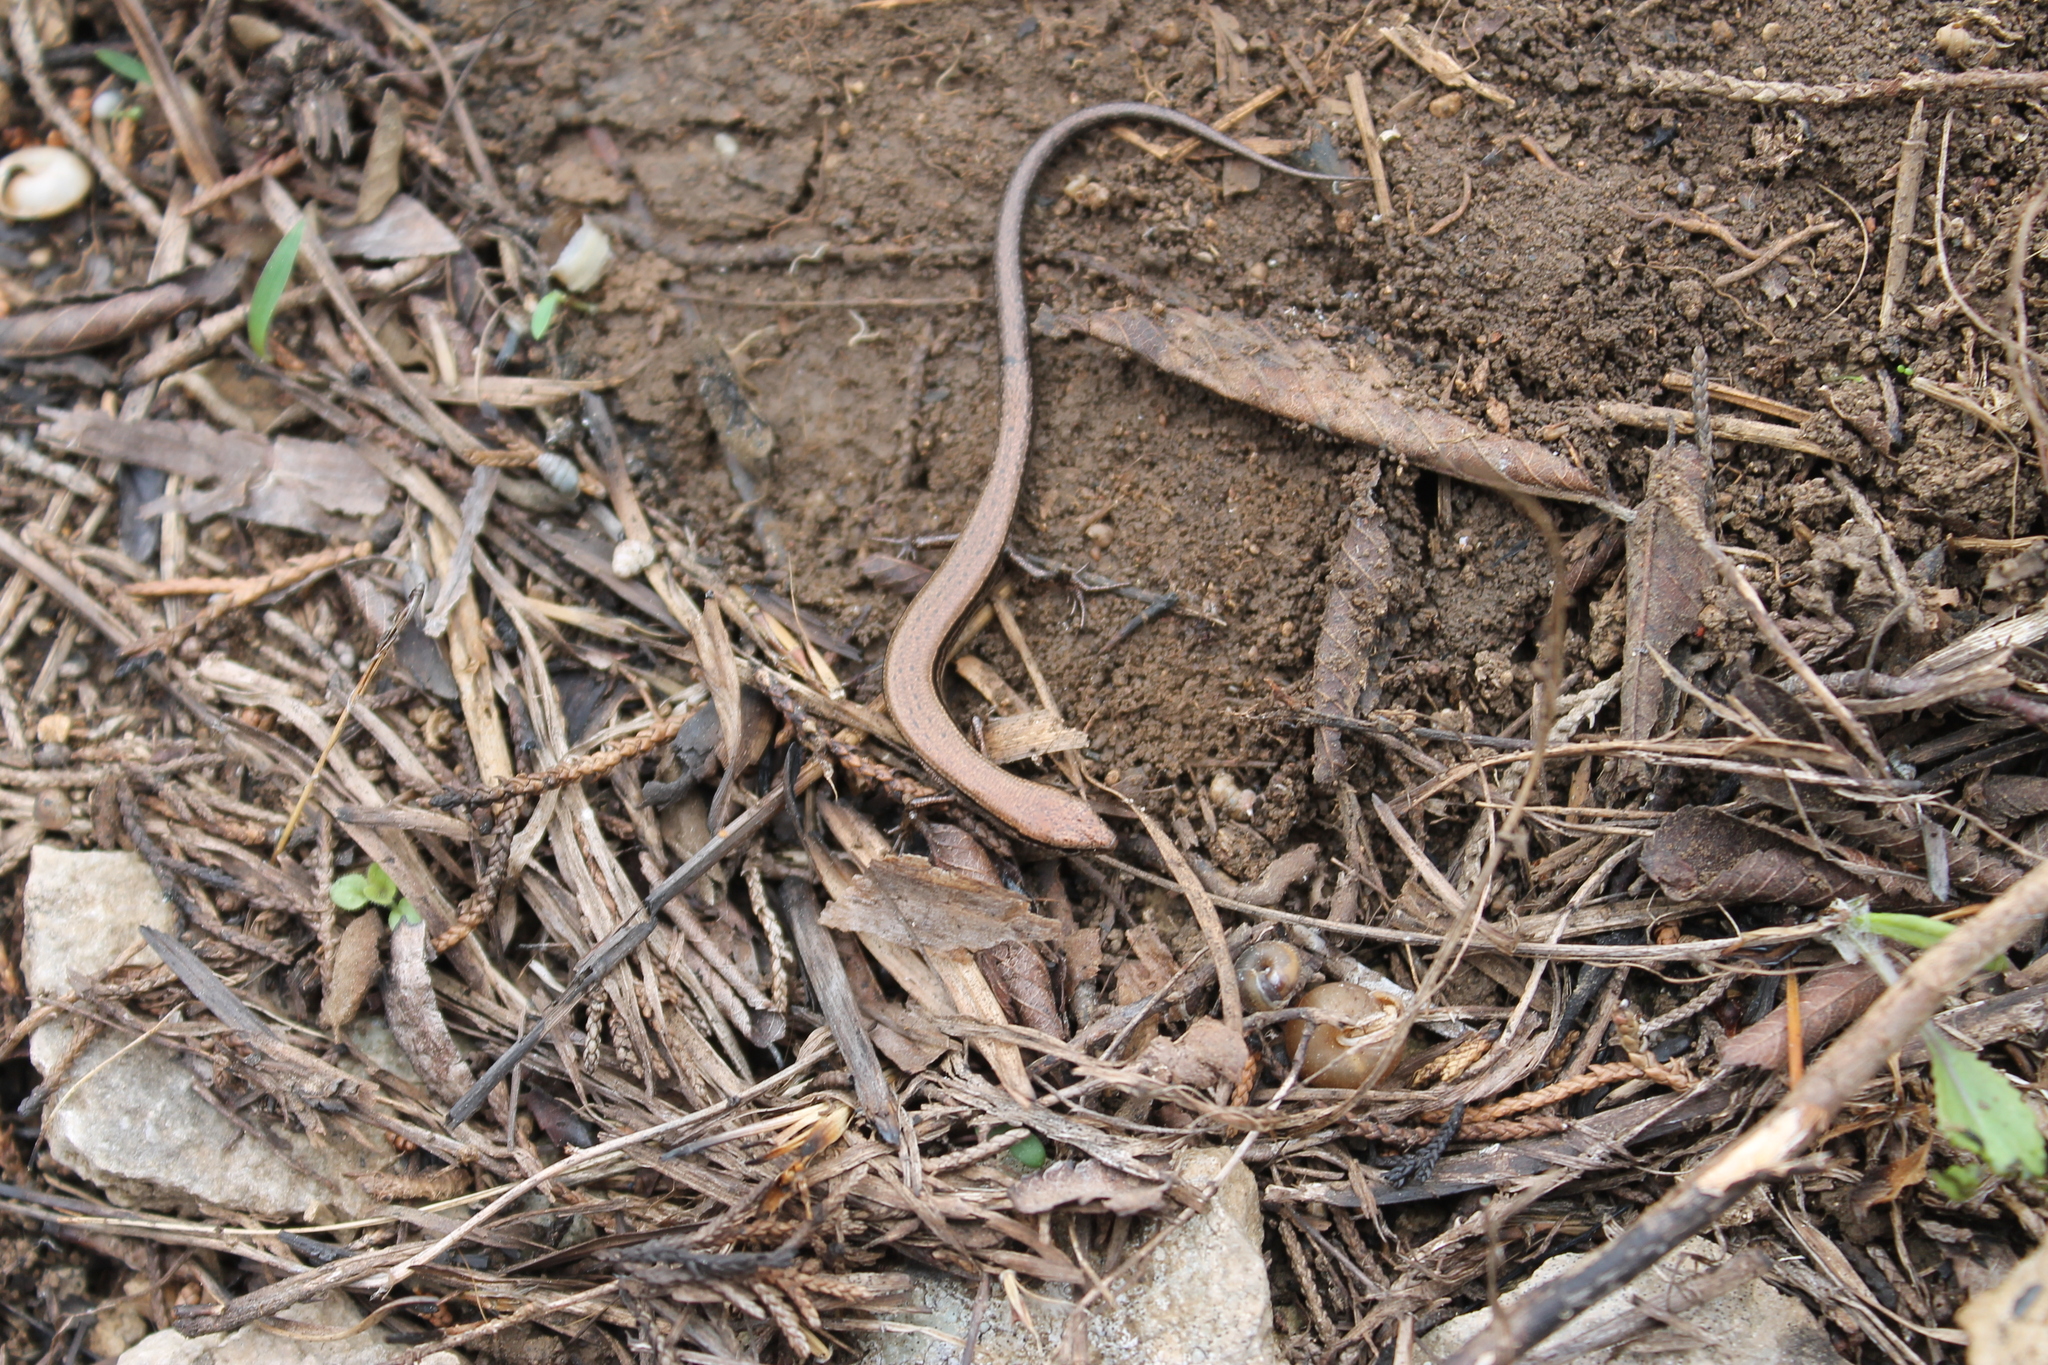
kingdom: Animalia
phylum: Chordata
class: Squamata
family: Scincidae
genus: Scincella
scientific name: Scincella lateralis
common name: Ground skink
